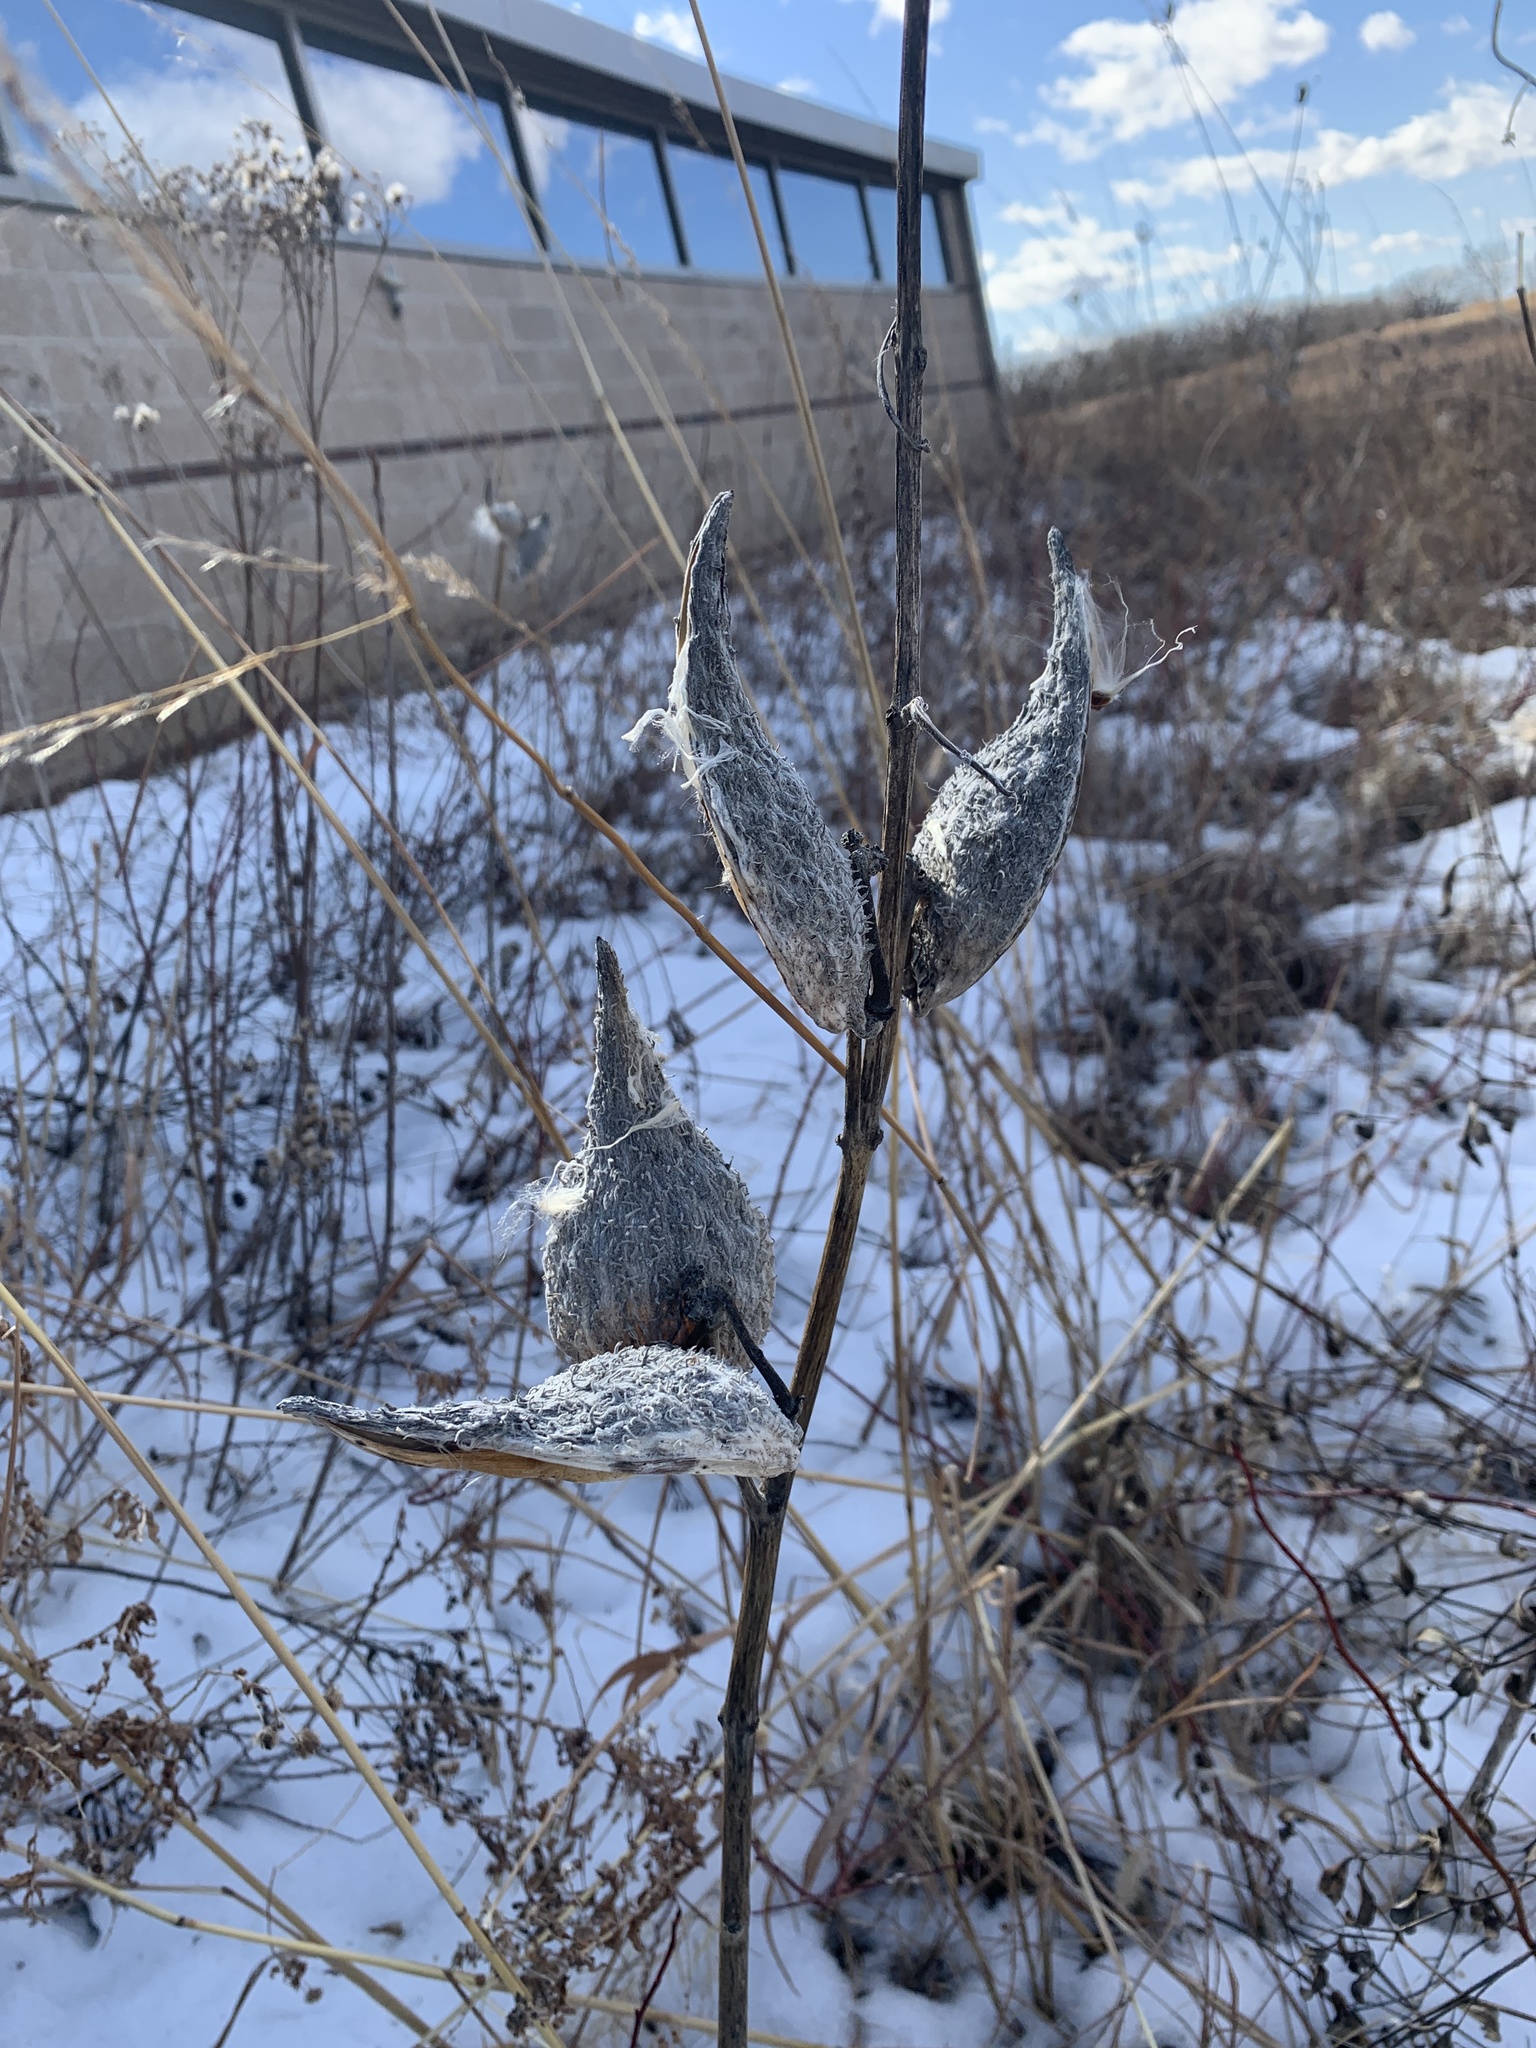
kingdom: Plantae
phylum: Tracheophyta
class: Magnoliopsida
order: Gentianales
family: Apocynaceae
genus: Asclepias
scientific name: Asclepias syriaca
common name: Common milkweed
